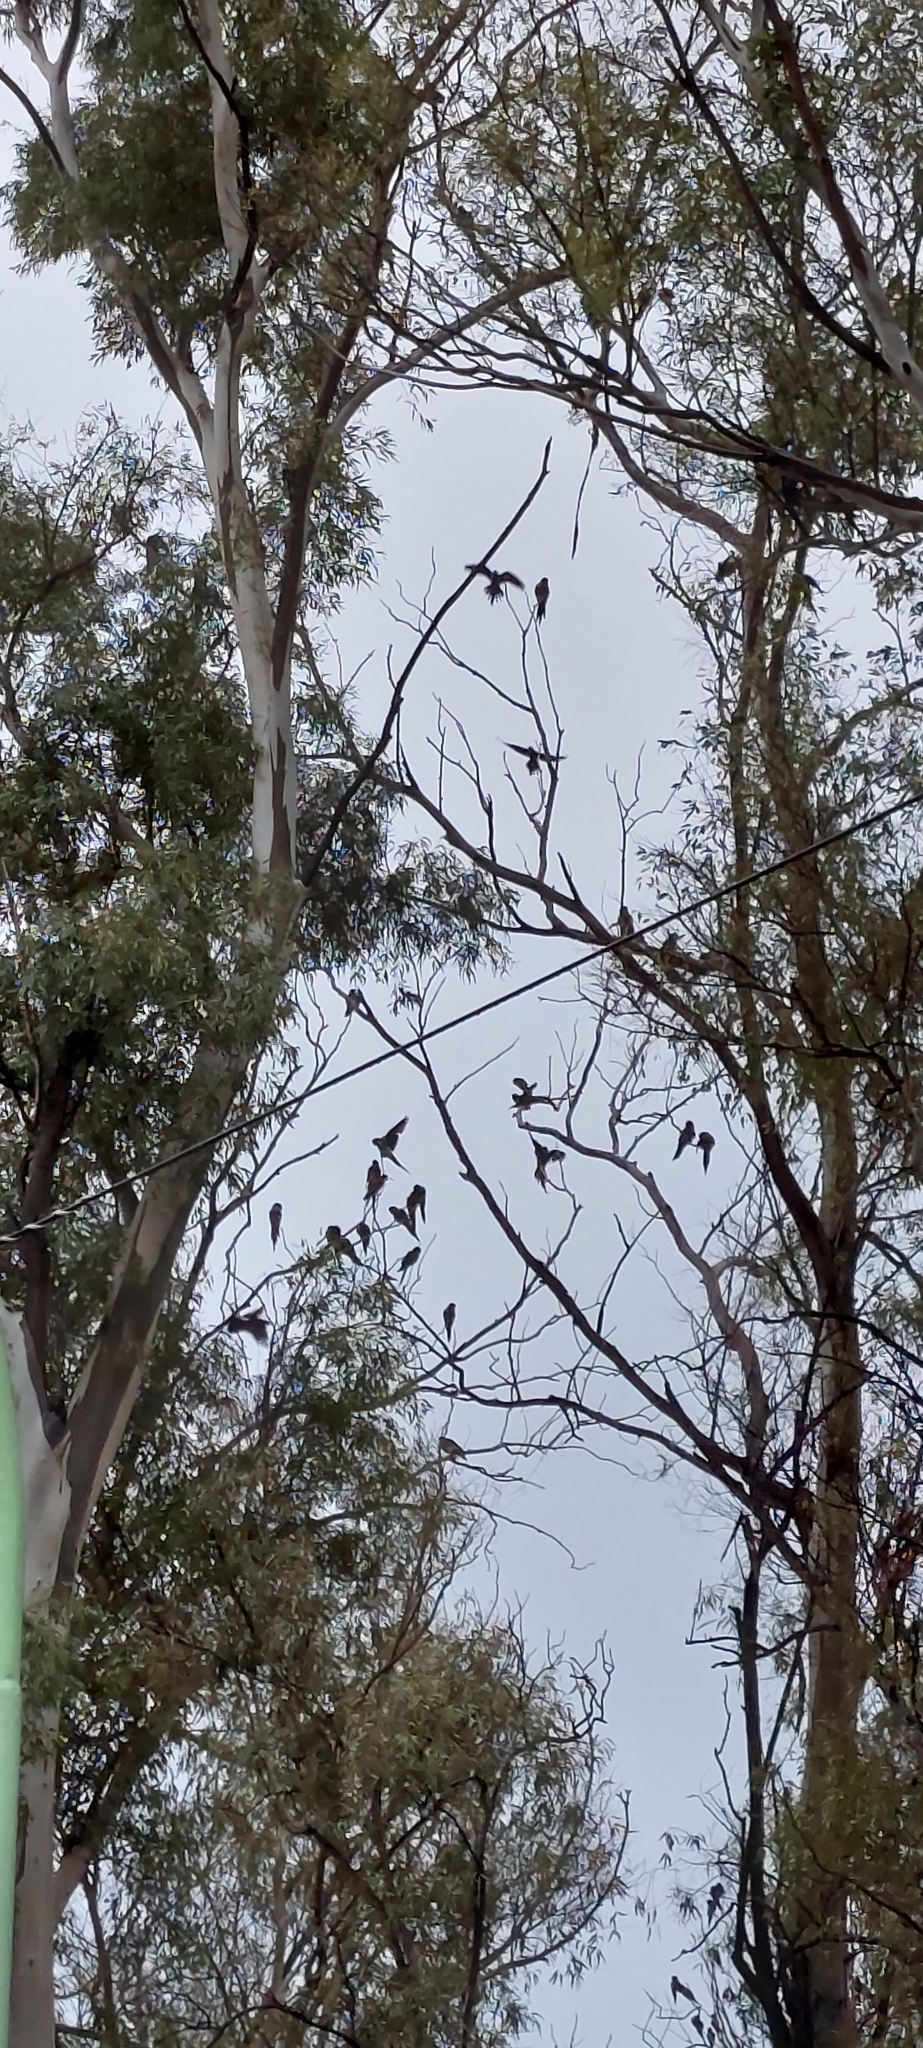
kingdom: Animalia
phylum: Chordata
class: Aves
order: Psittaciformes
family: Psittacidae
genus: Cyanoliseus
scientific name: Cyanoliseus patagonus
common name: Burrowing parrot
